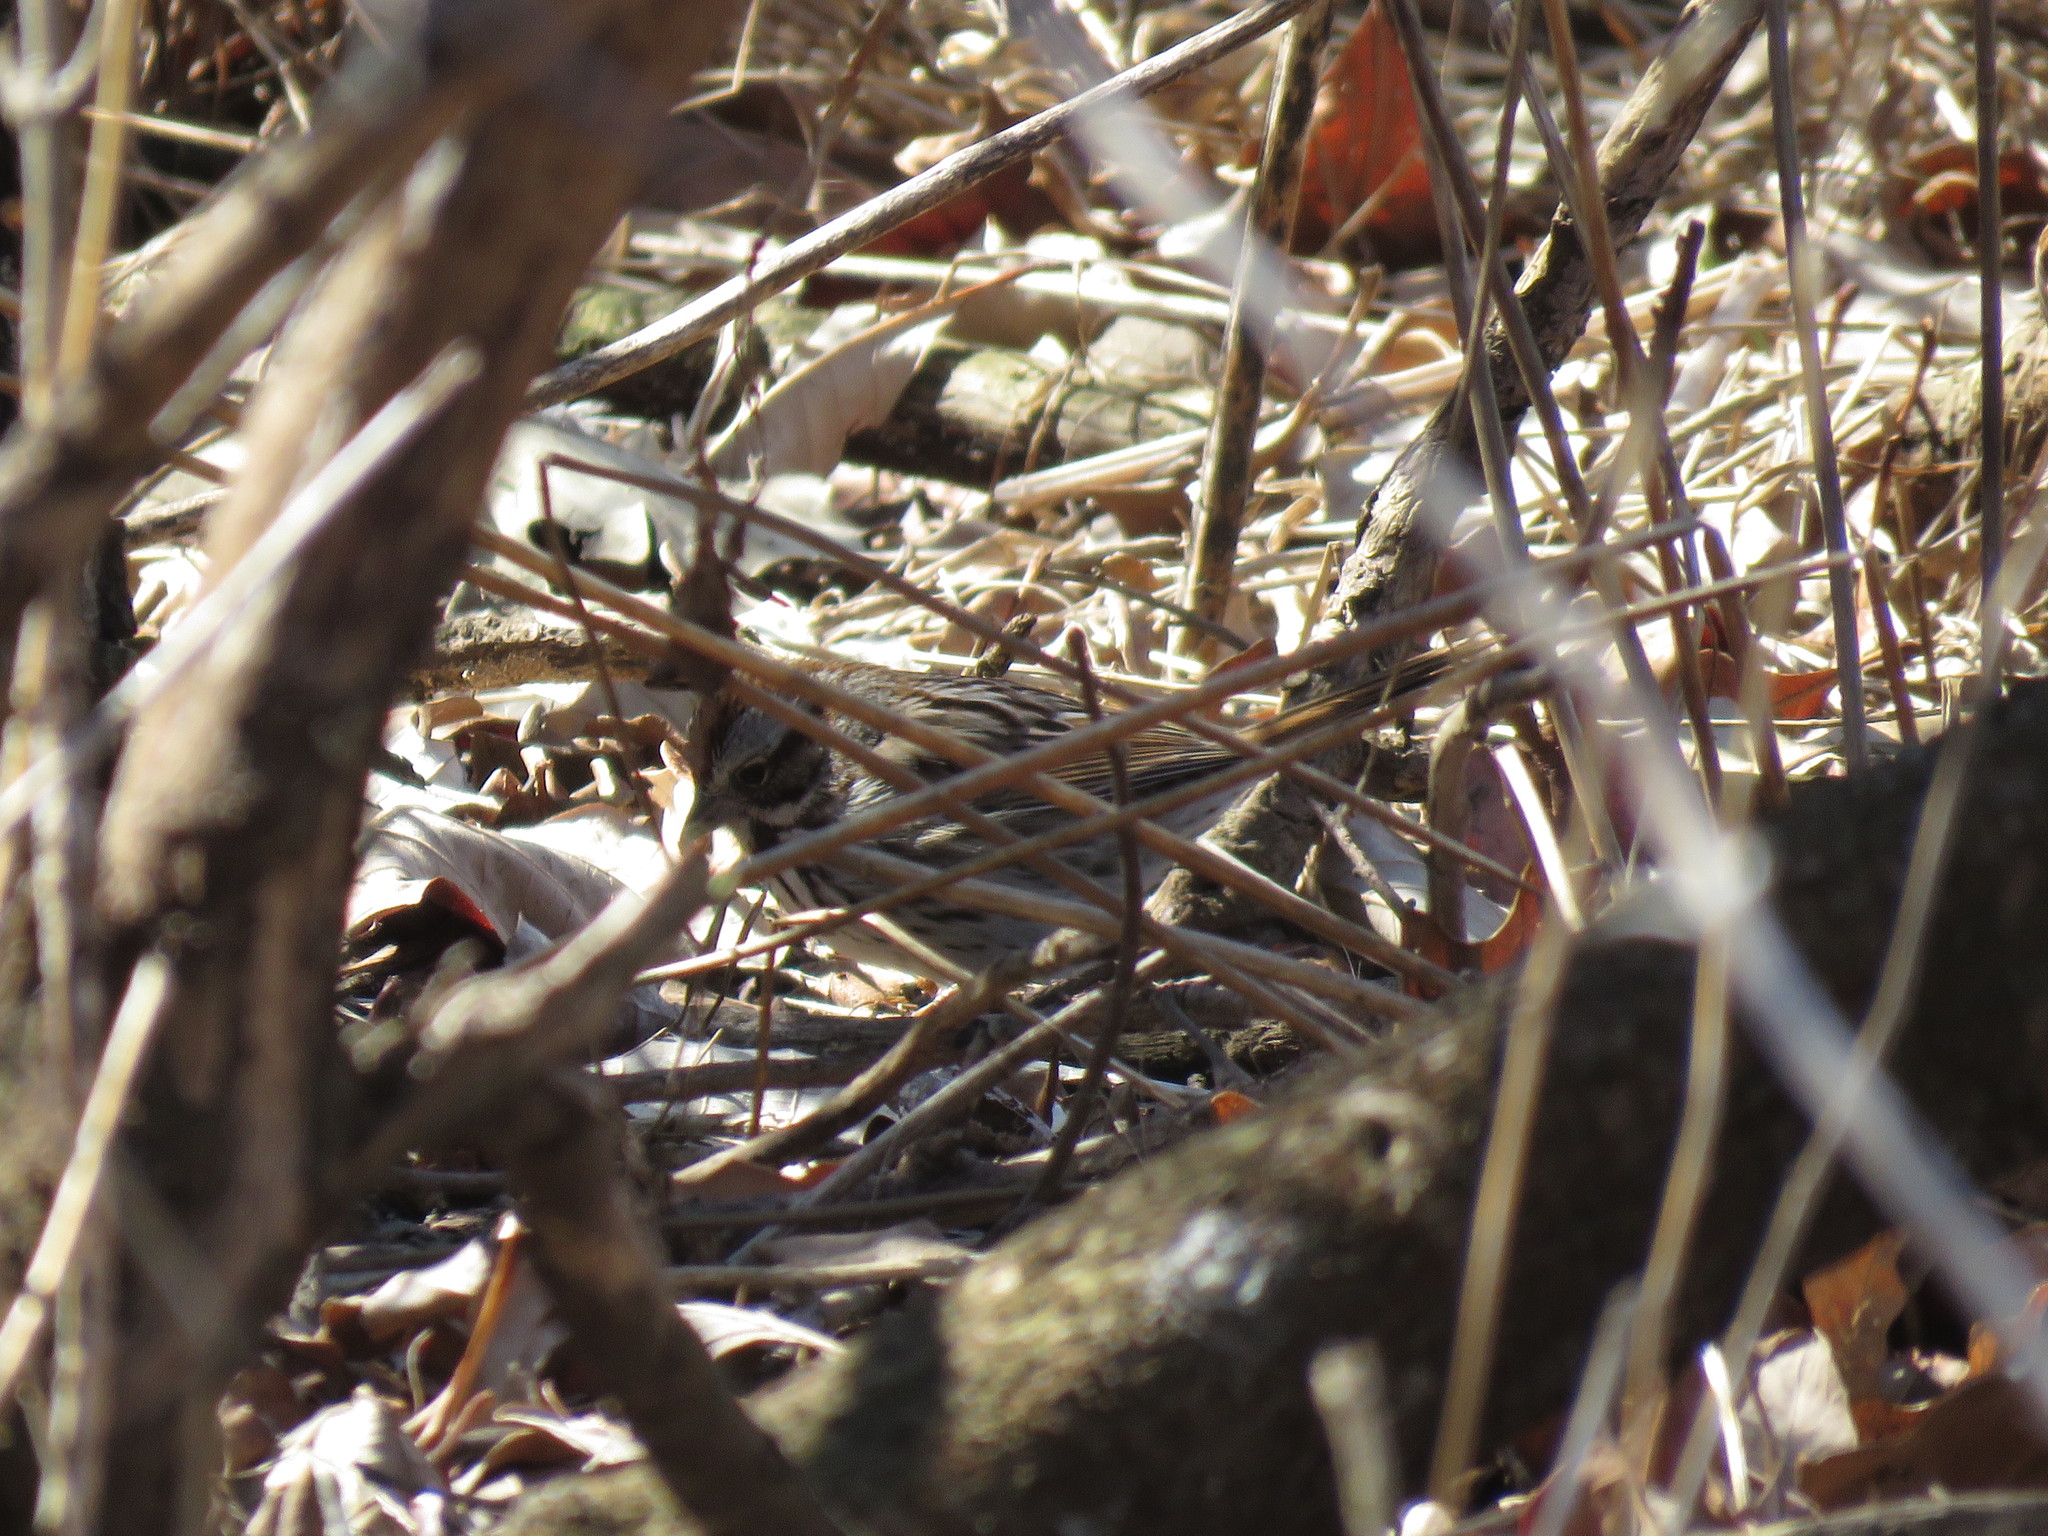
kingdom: Animalia
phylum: Chordata
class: Aves
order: Passeriformes
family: Passerellidae
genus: Melospiza
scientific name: Melospiza melodia
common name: Song sparrow
